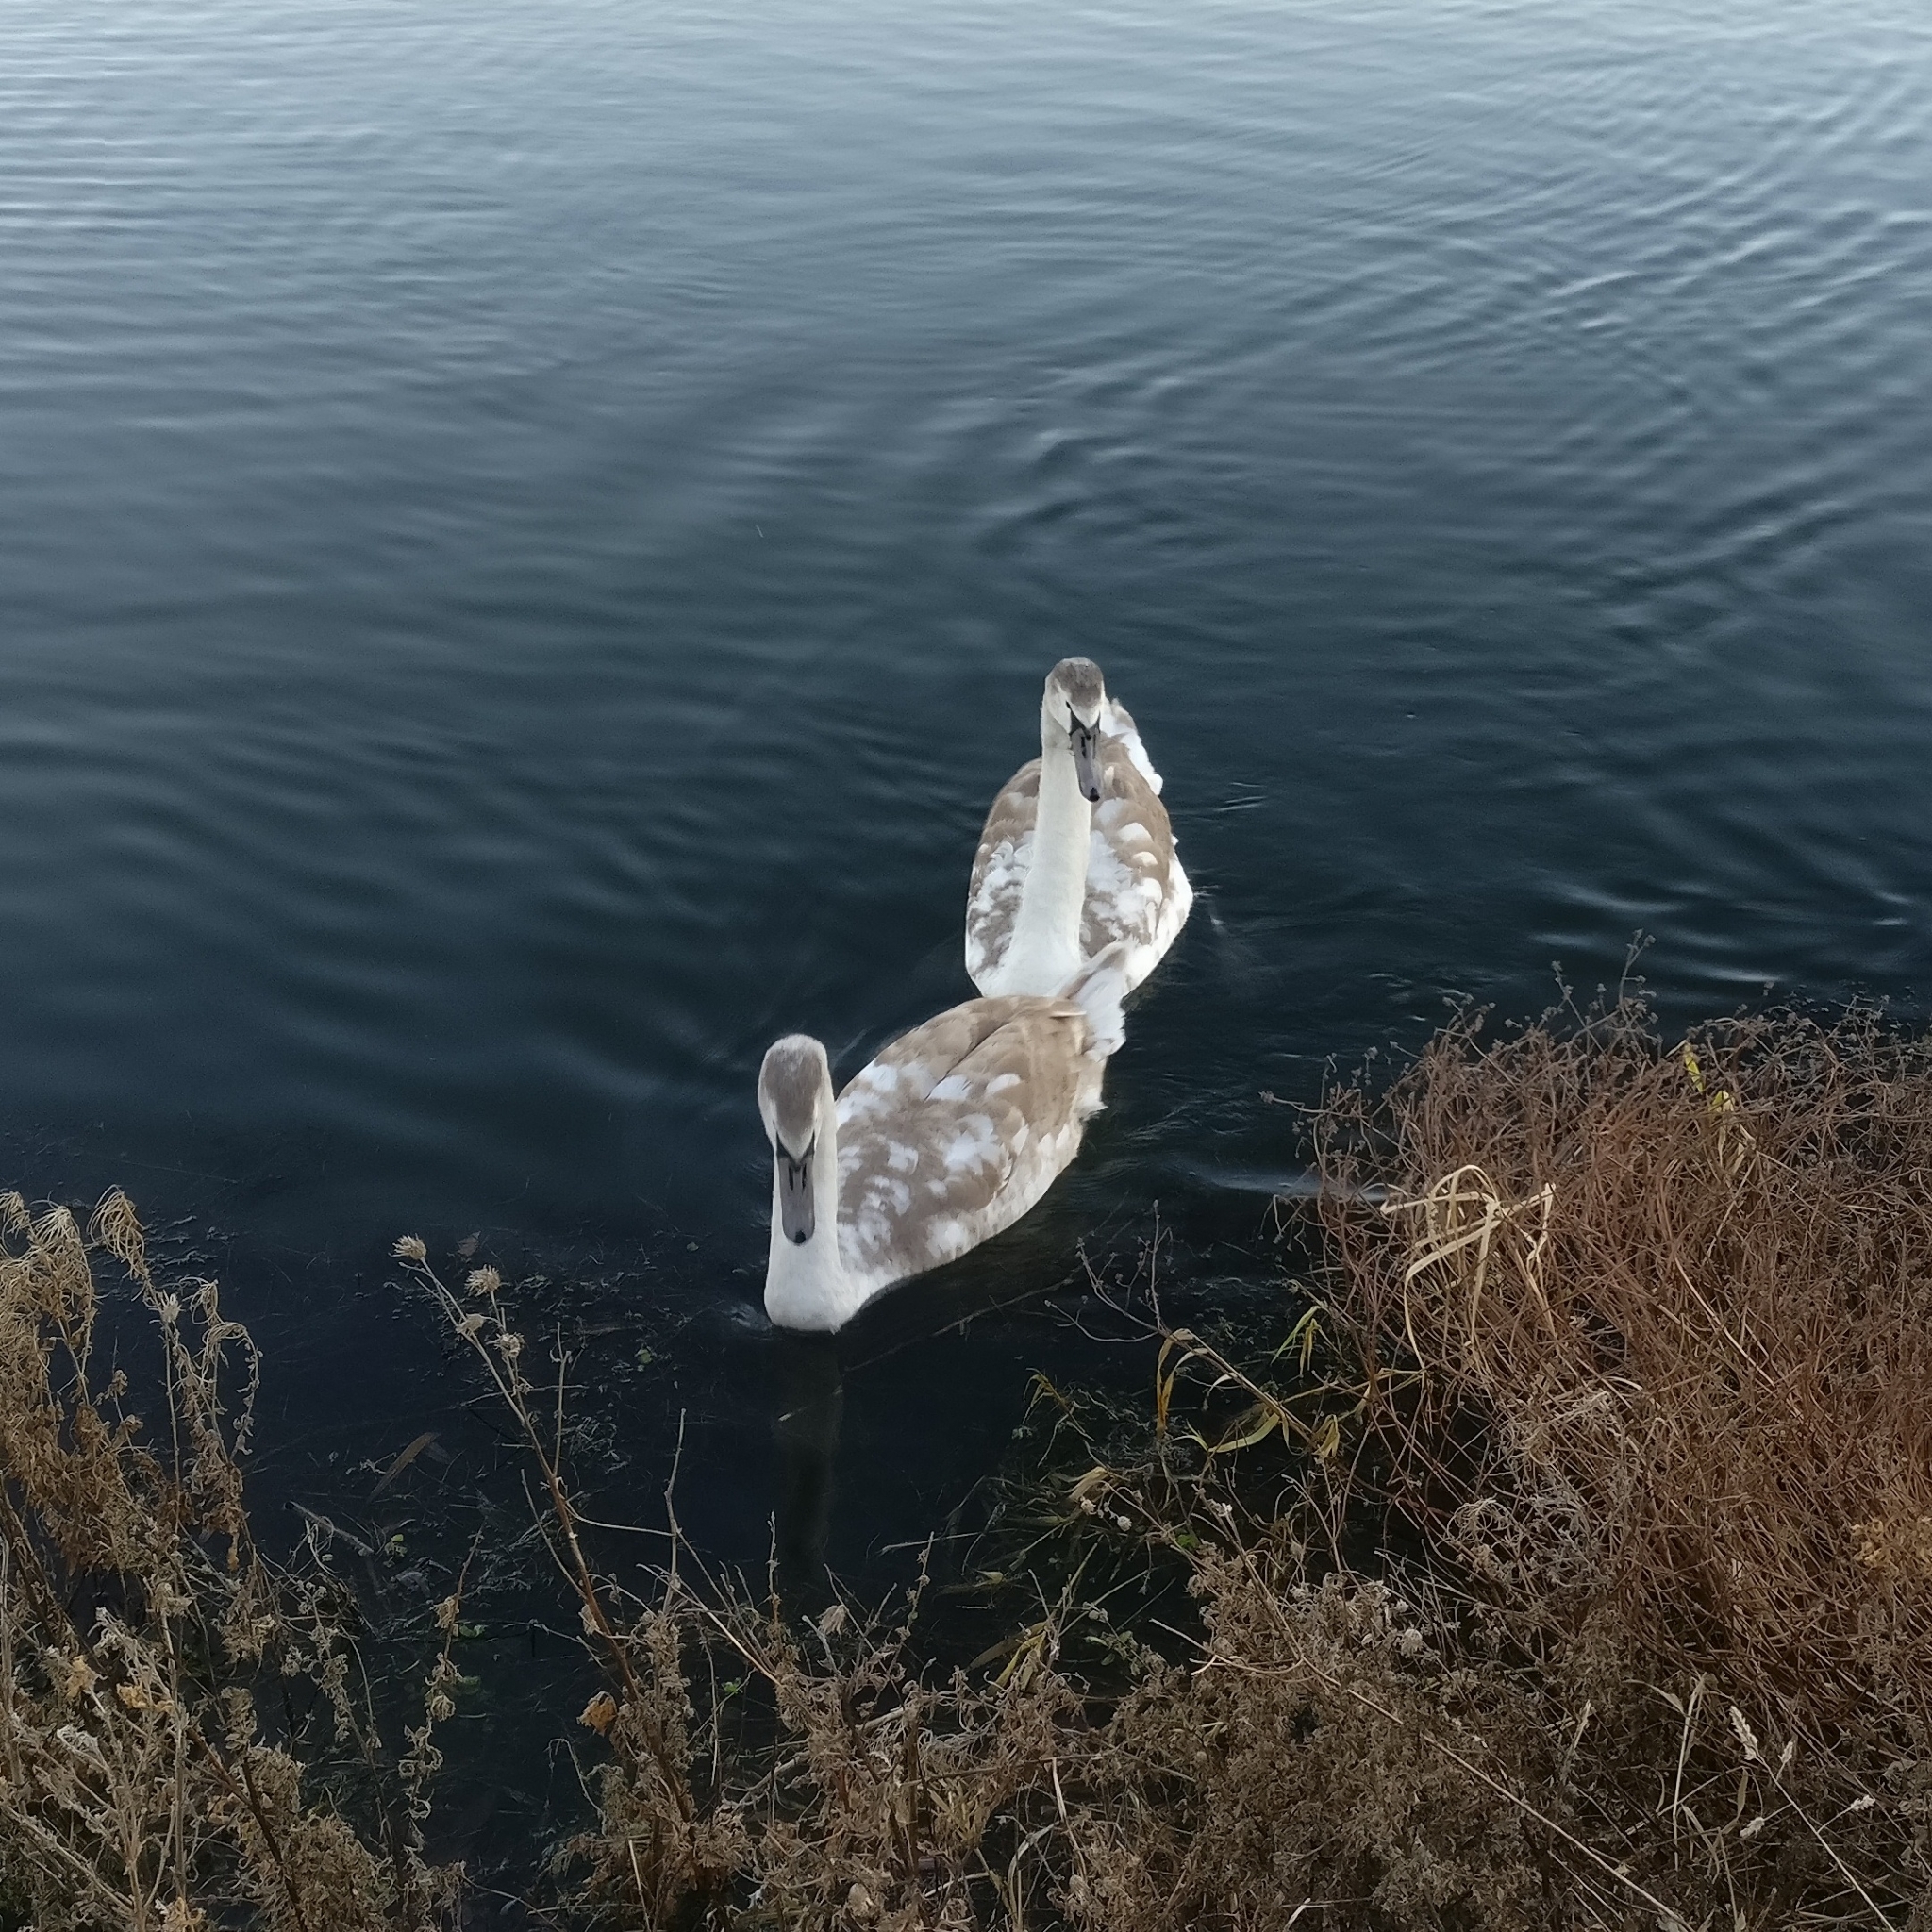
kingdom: Animalia
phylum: Chordata
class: Aves
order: Anseriformes
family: Anatidae
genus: Cygnus
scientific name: Cygnus olor
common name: Mute swan
